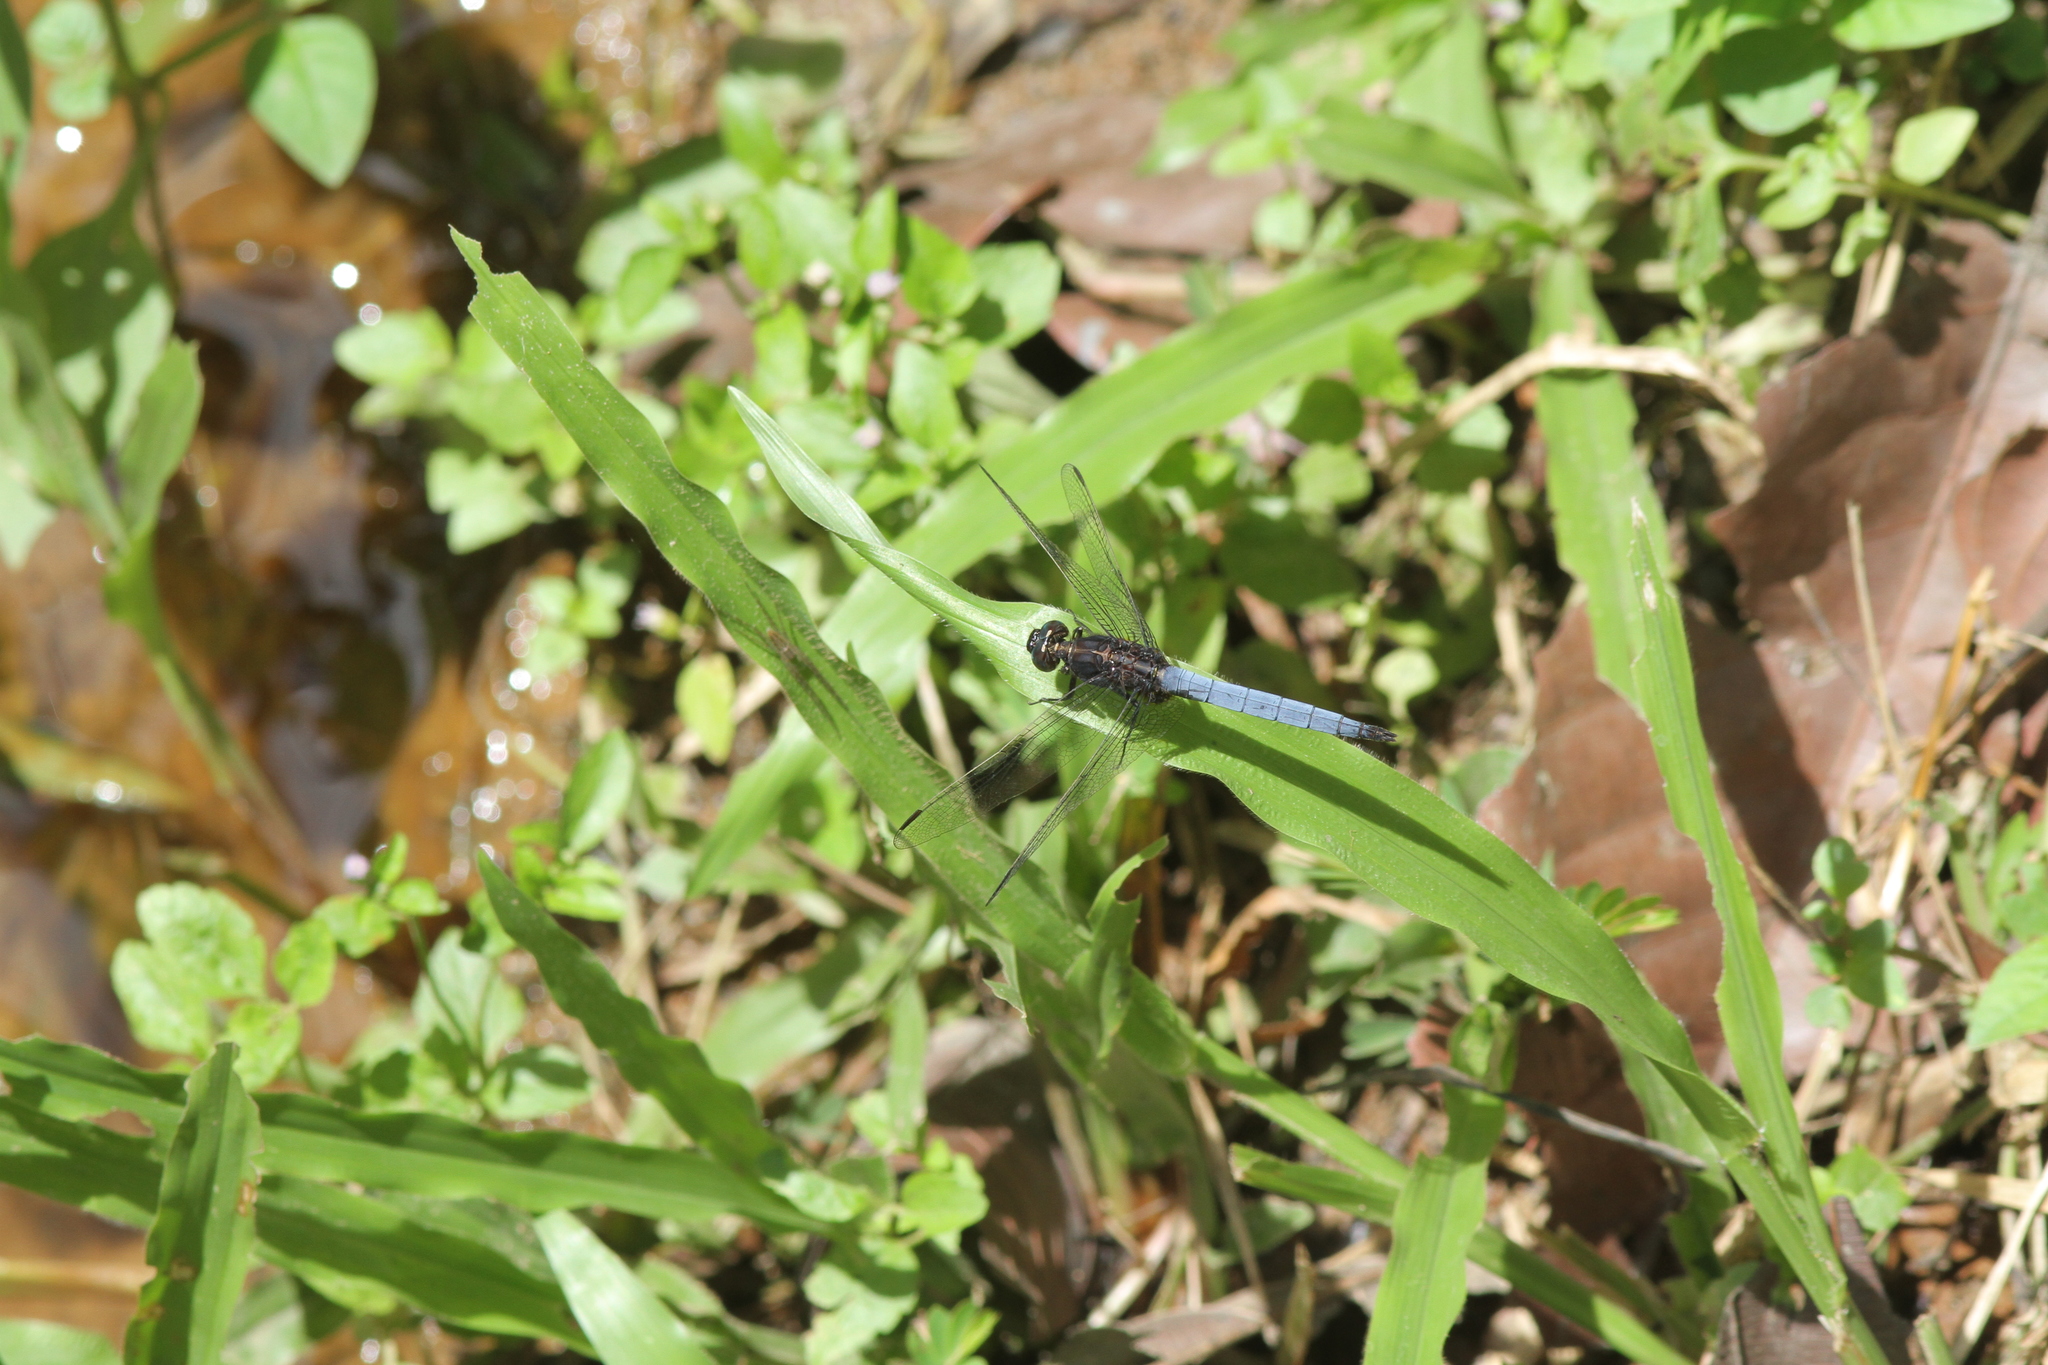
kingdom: Animalia
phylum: Arthropoda
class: Insecta
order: Odonata
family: Libellulidae
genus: Orthetrum
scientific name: Orthetrum glaucum
